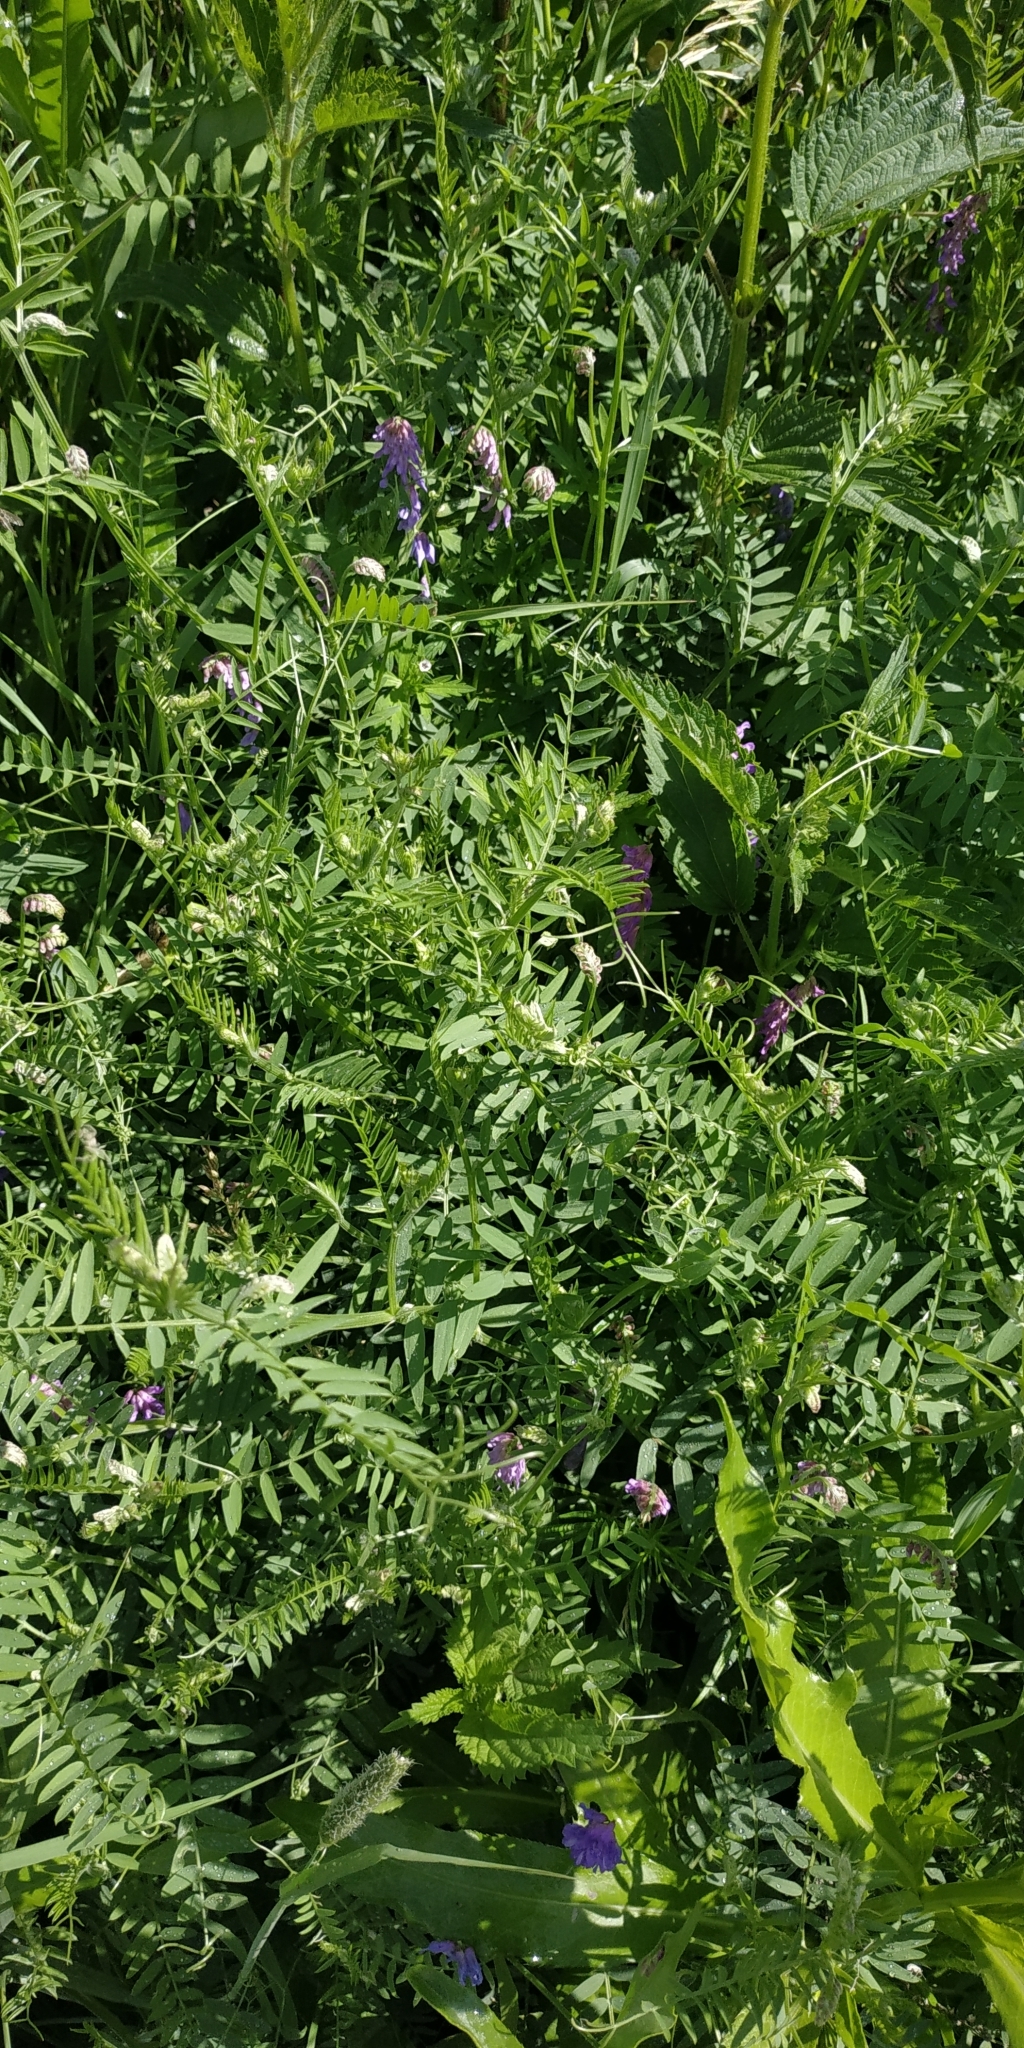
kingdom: Plantae
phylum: Tracheophyta
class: Magnoliopsida
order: Fabales
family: Fabaceae
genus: Vicia
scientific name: Vicia cracca
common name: Bird vetch
